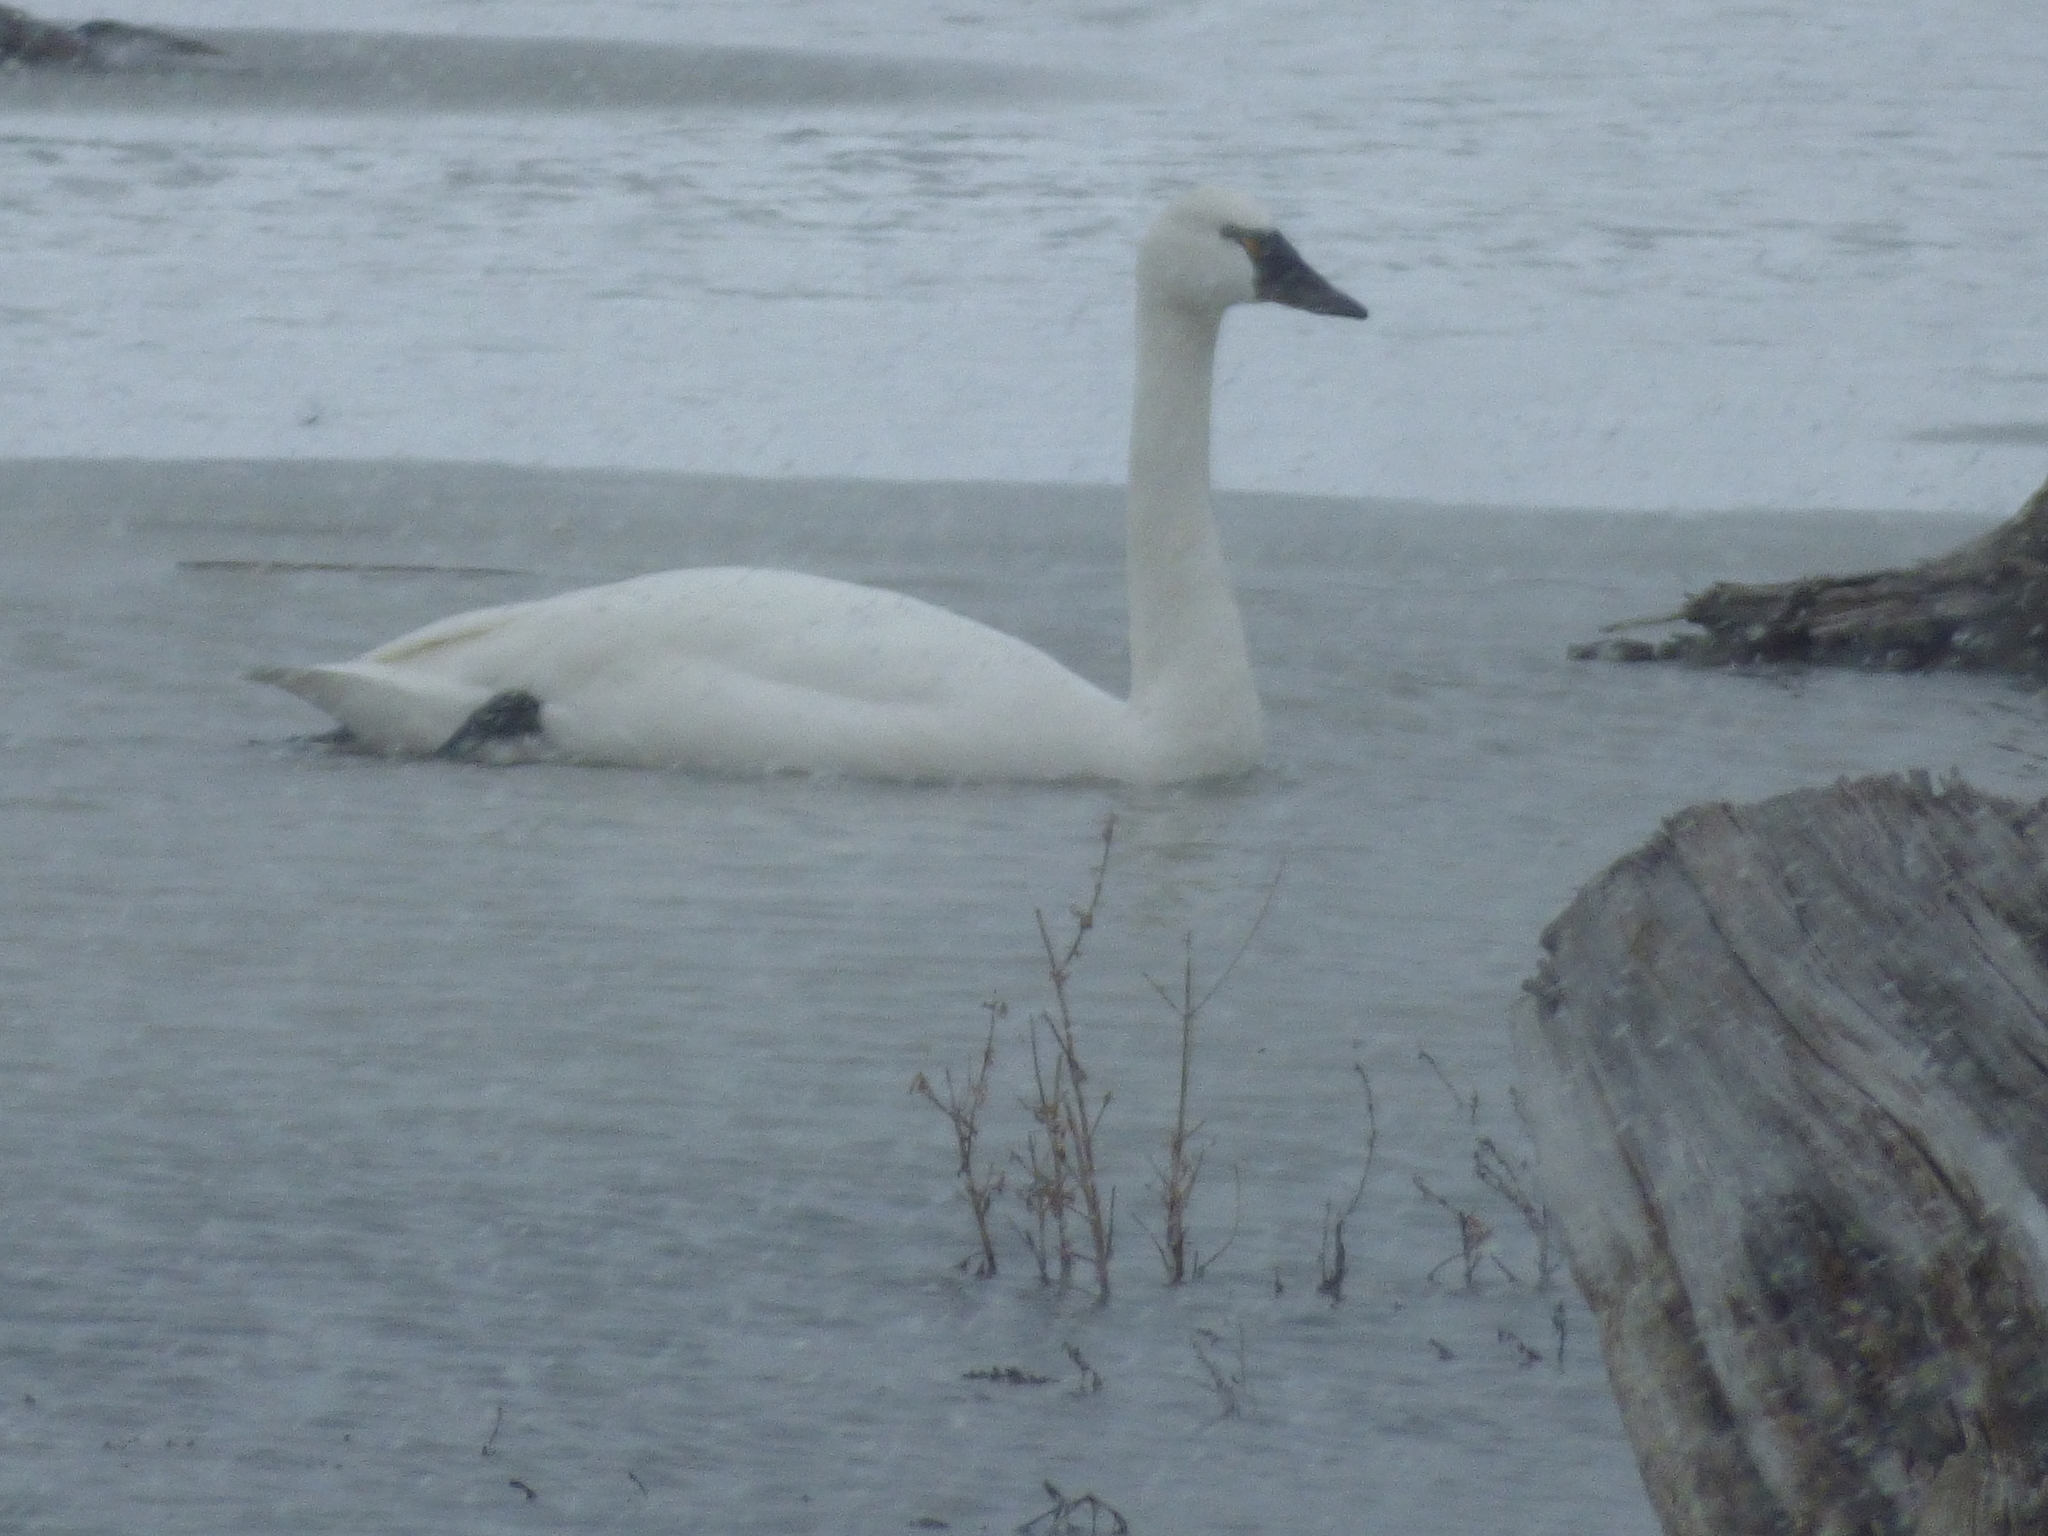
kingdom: Animalia
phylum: Chordata
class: Aves
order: Anseriformes
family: Anatidae
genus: Cygnus
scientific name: Cygnus columbianus
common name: Tundra swan
